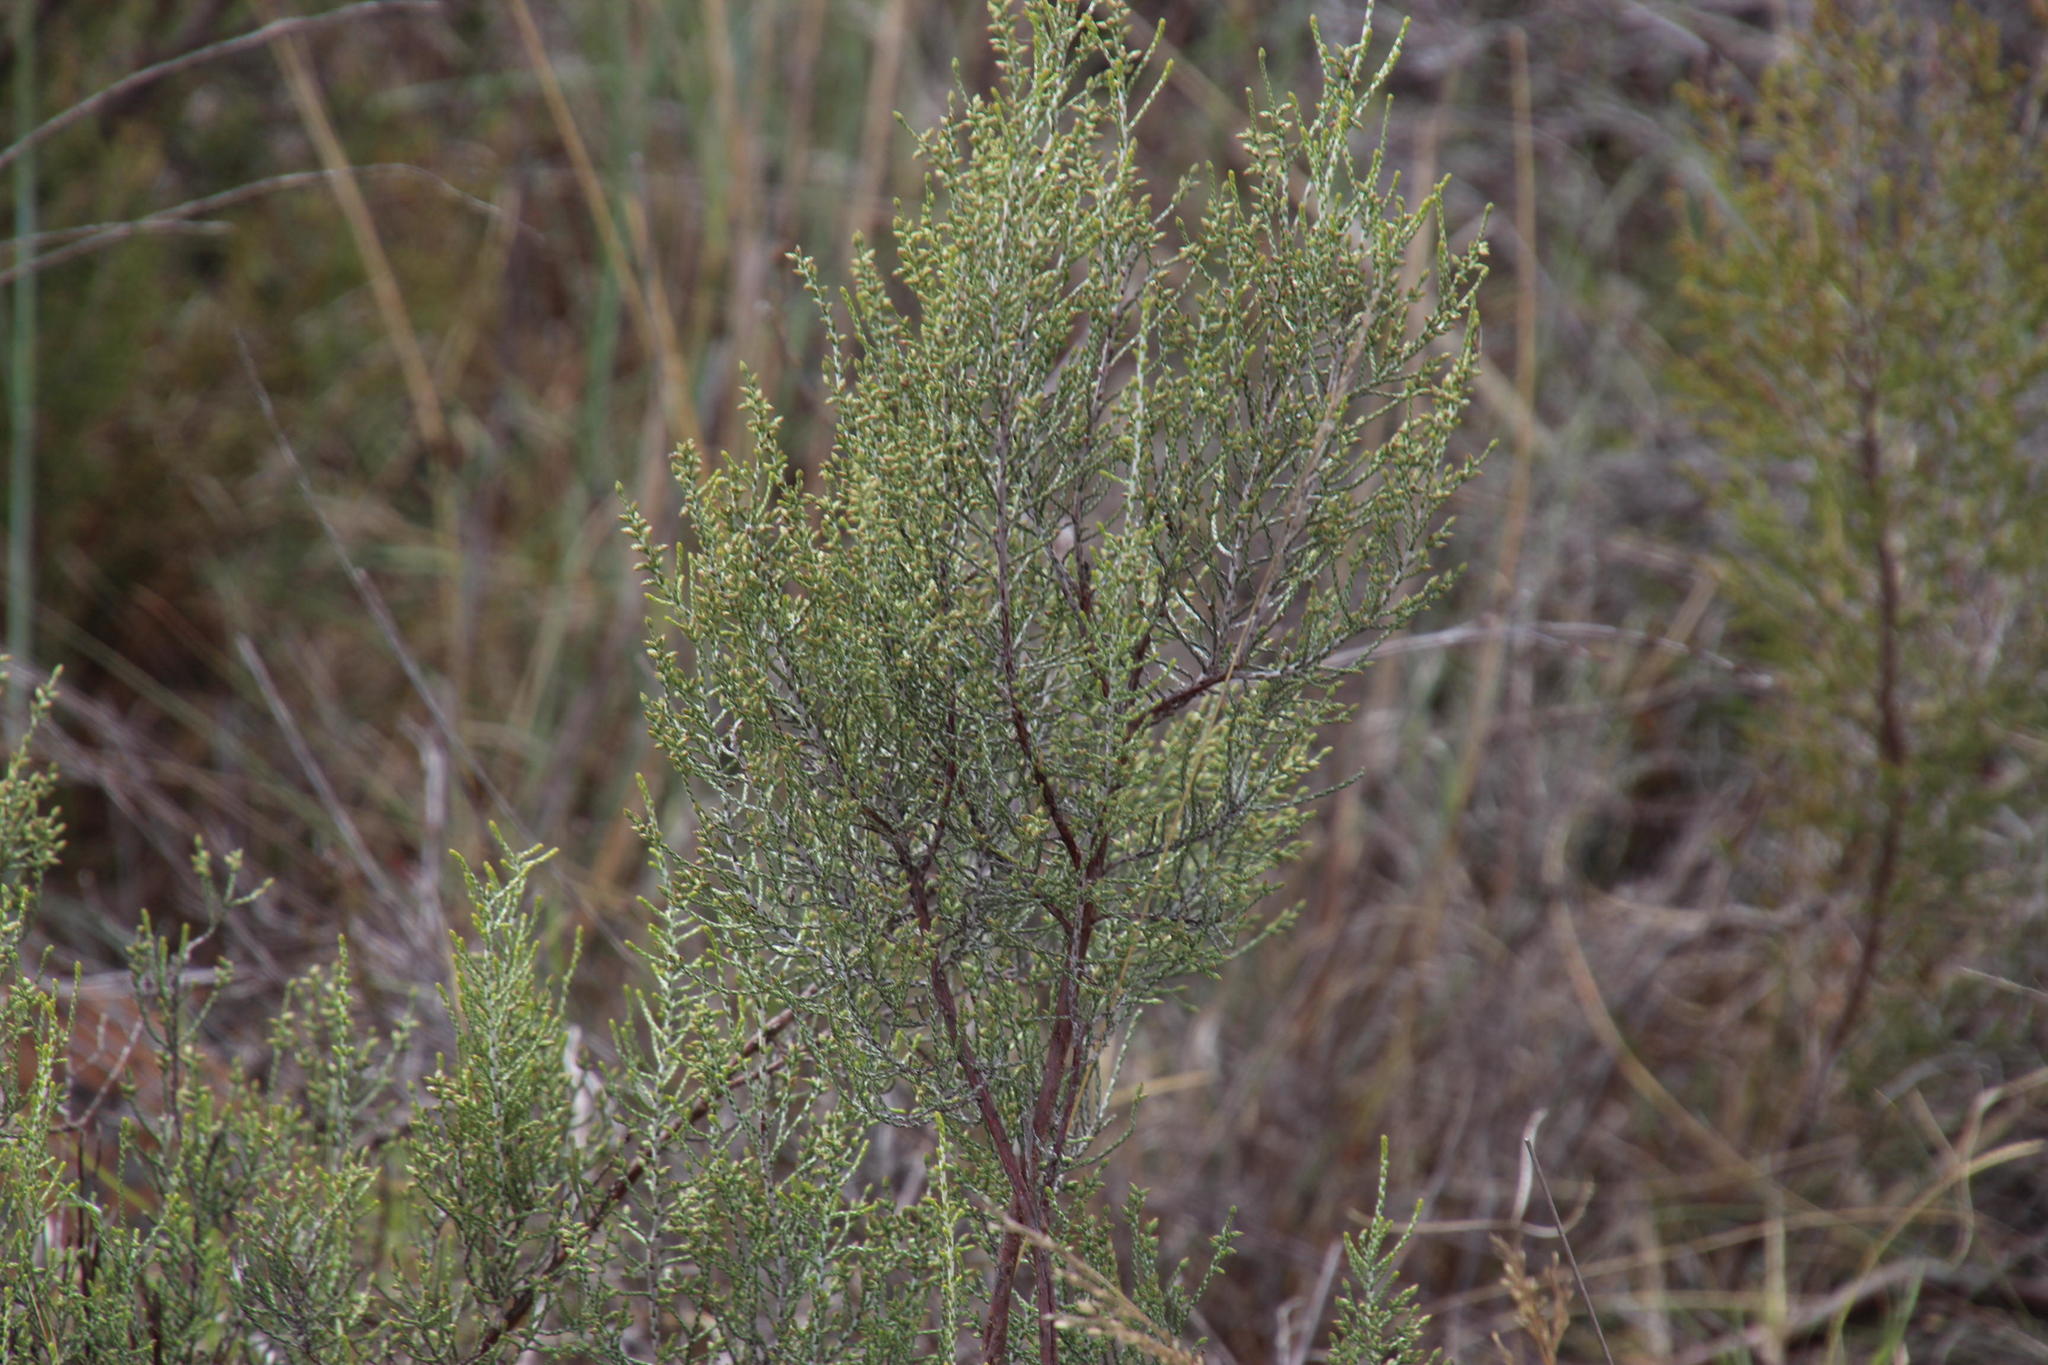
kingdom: Plantae
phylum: Tracheophyta
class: Magnoliopsida
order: Asterales
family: Asteraceae
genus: Dicerothamnus
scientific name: Dicerothamnus rhinocerotis
